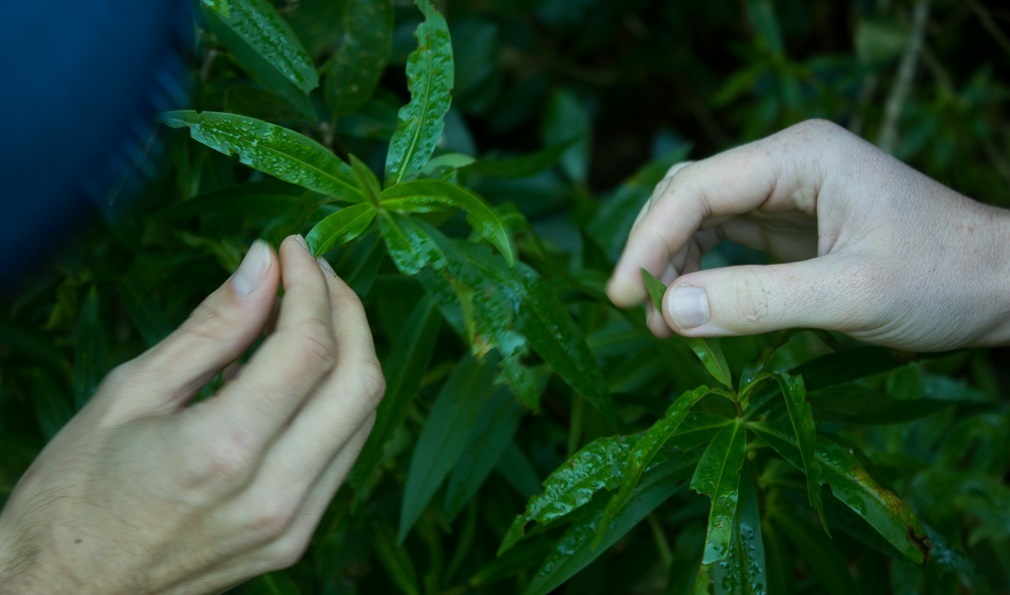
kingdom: Plantae
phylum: Tracheophyta
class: Magnoliopsida
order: Lamiales
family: Plantaginaceae
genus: Veronica
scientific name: Veronica macrocarpa
